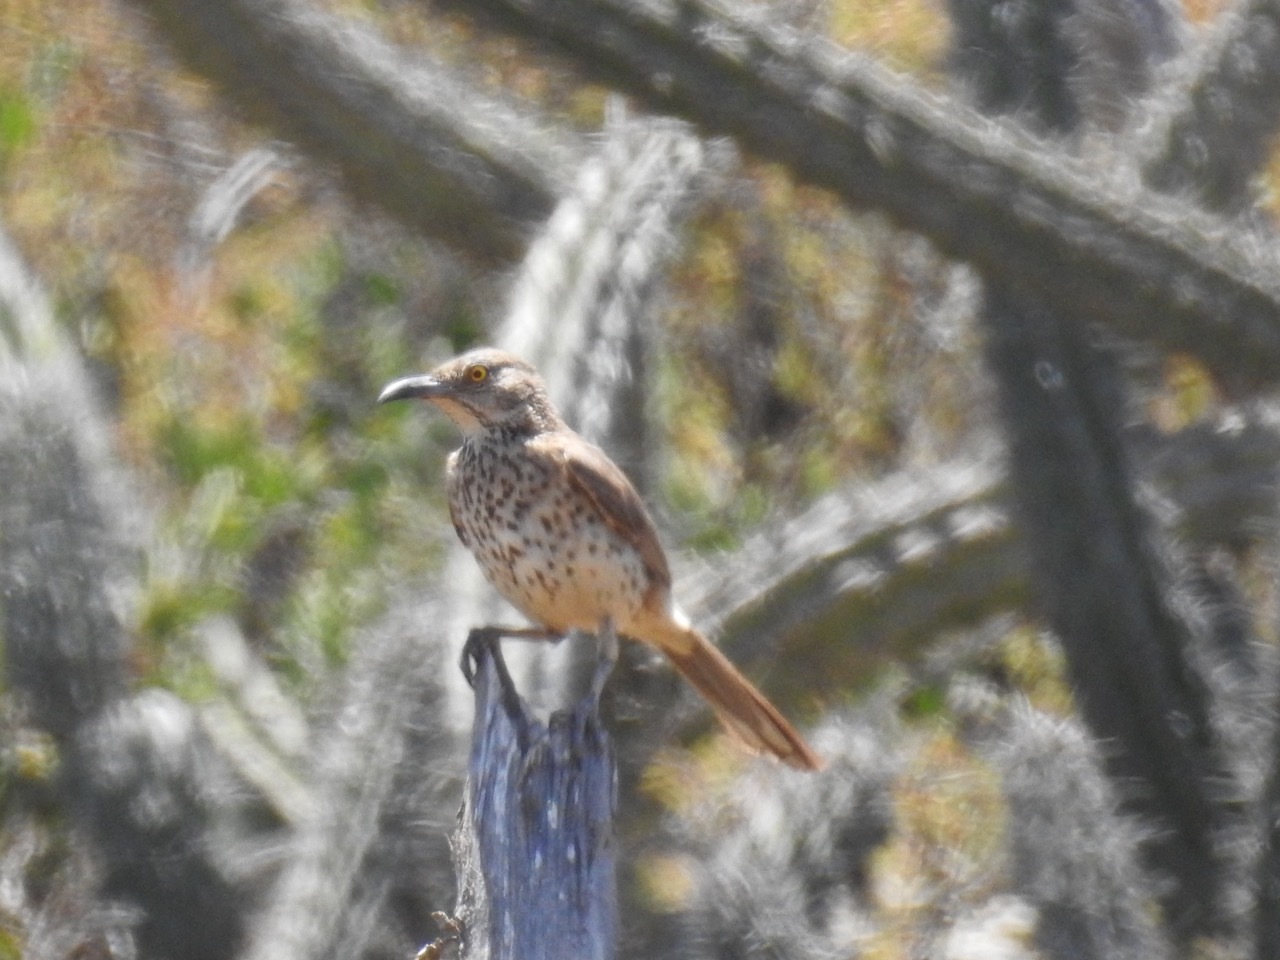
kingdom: Animalia
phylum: Chordata
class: Aves
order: Passeriformes
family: Mimidae
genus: Toxostoma
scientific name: Toxostoma cinereum
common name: Gray thrasher
